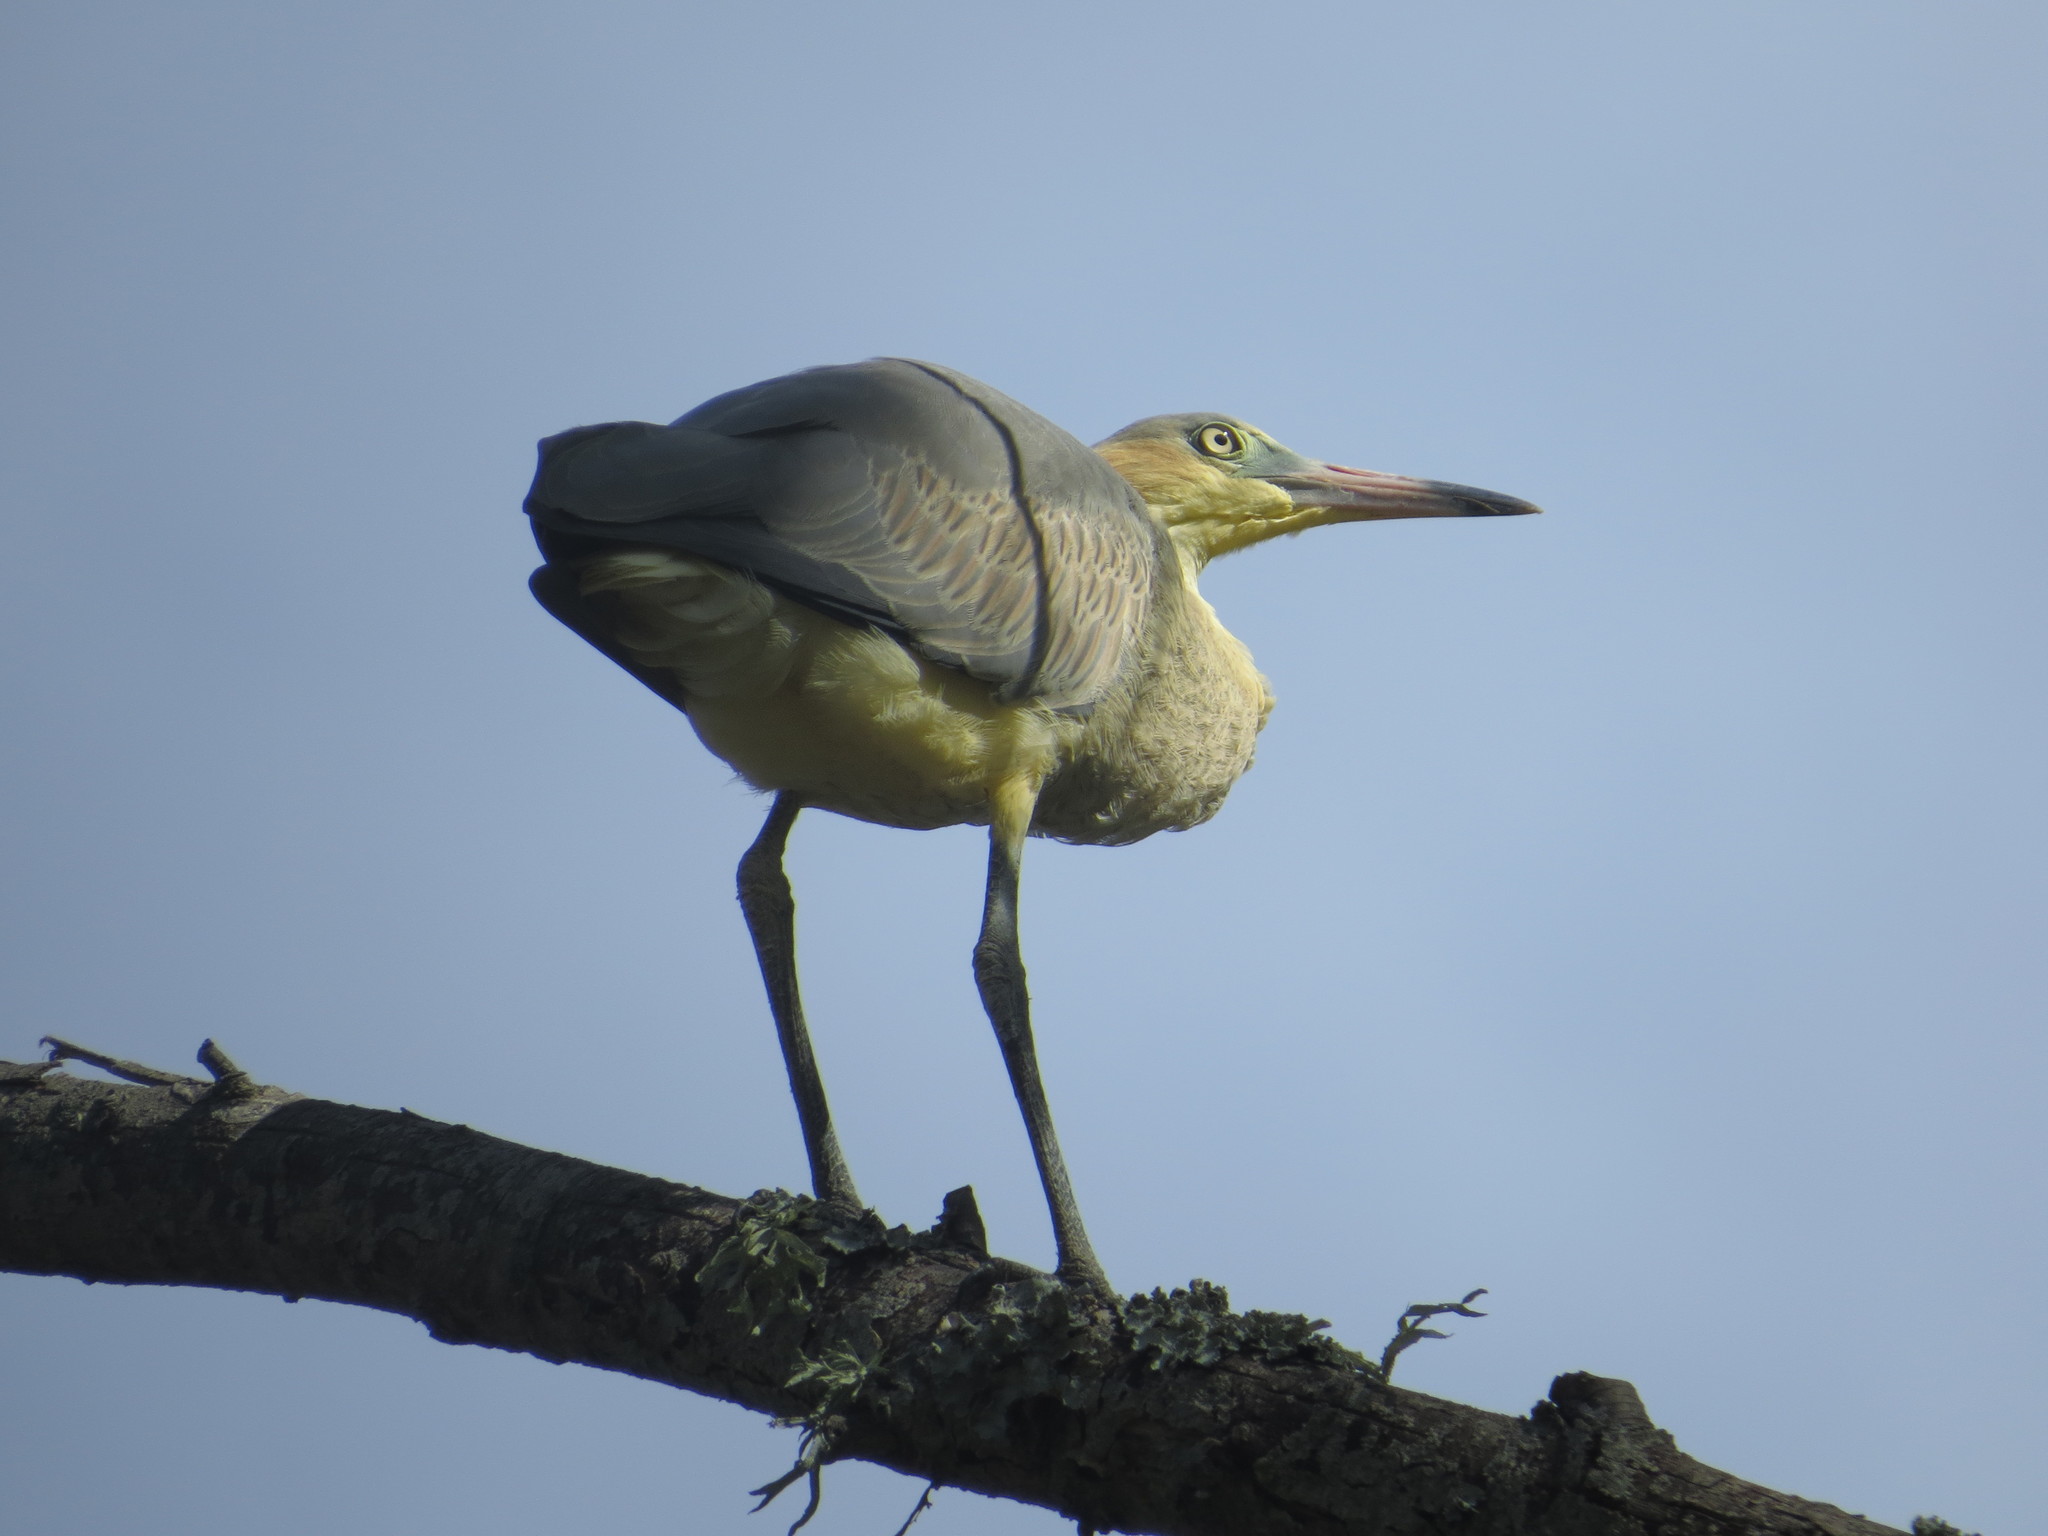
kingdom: Animalia
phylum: Chordata
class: Aves
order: Pelecaniformes
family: Ardeidae
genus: Syrigma
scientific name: Syrigma sibilatrix
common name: Whistling heron
